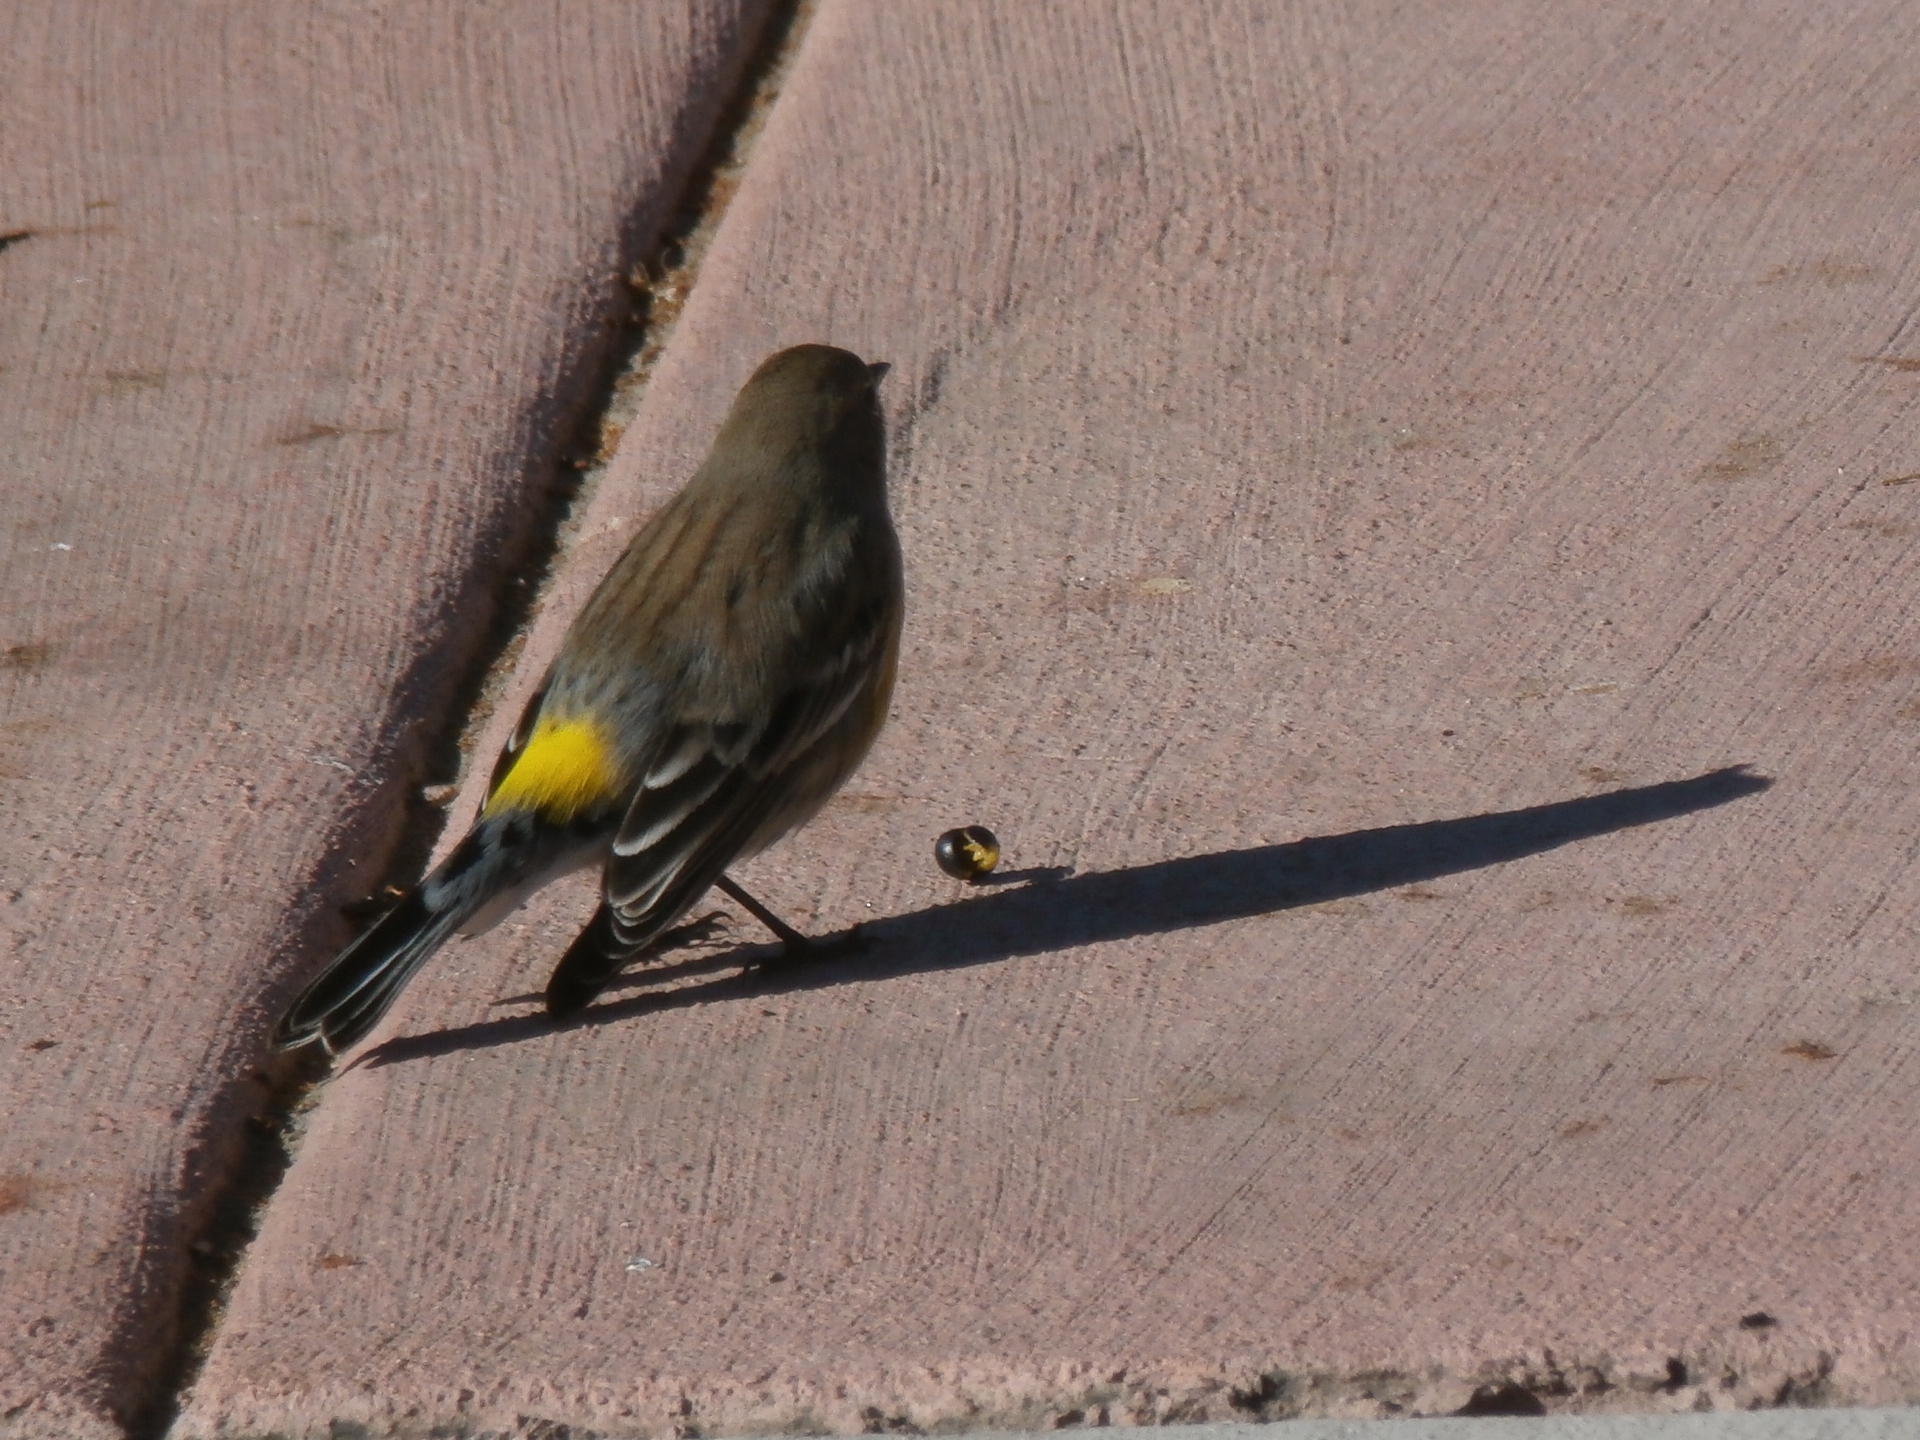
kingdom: Animalia
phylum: Chordata
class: Aves
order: Passeriformes
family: Parulidae
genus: Setophaga
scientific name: Setophaga coronata
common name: Myrtle warbler
